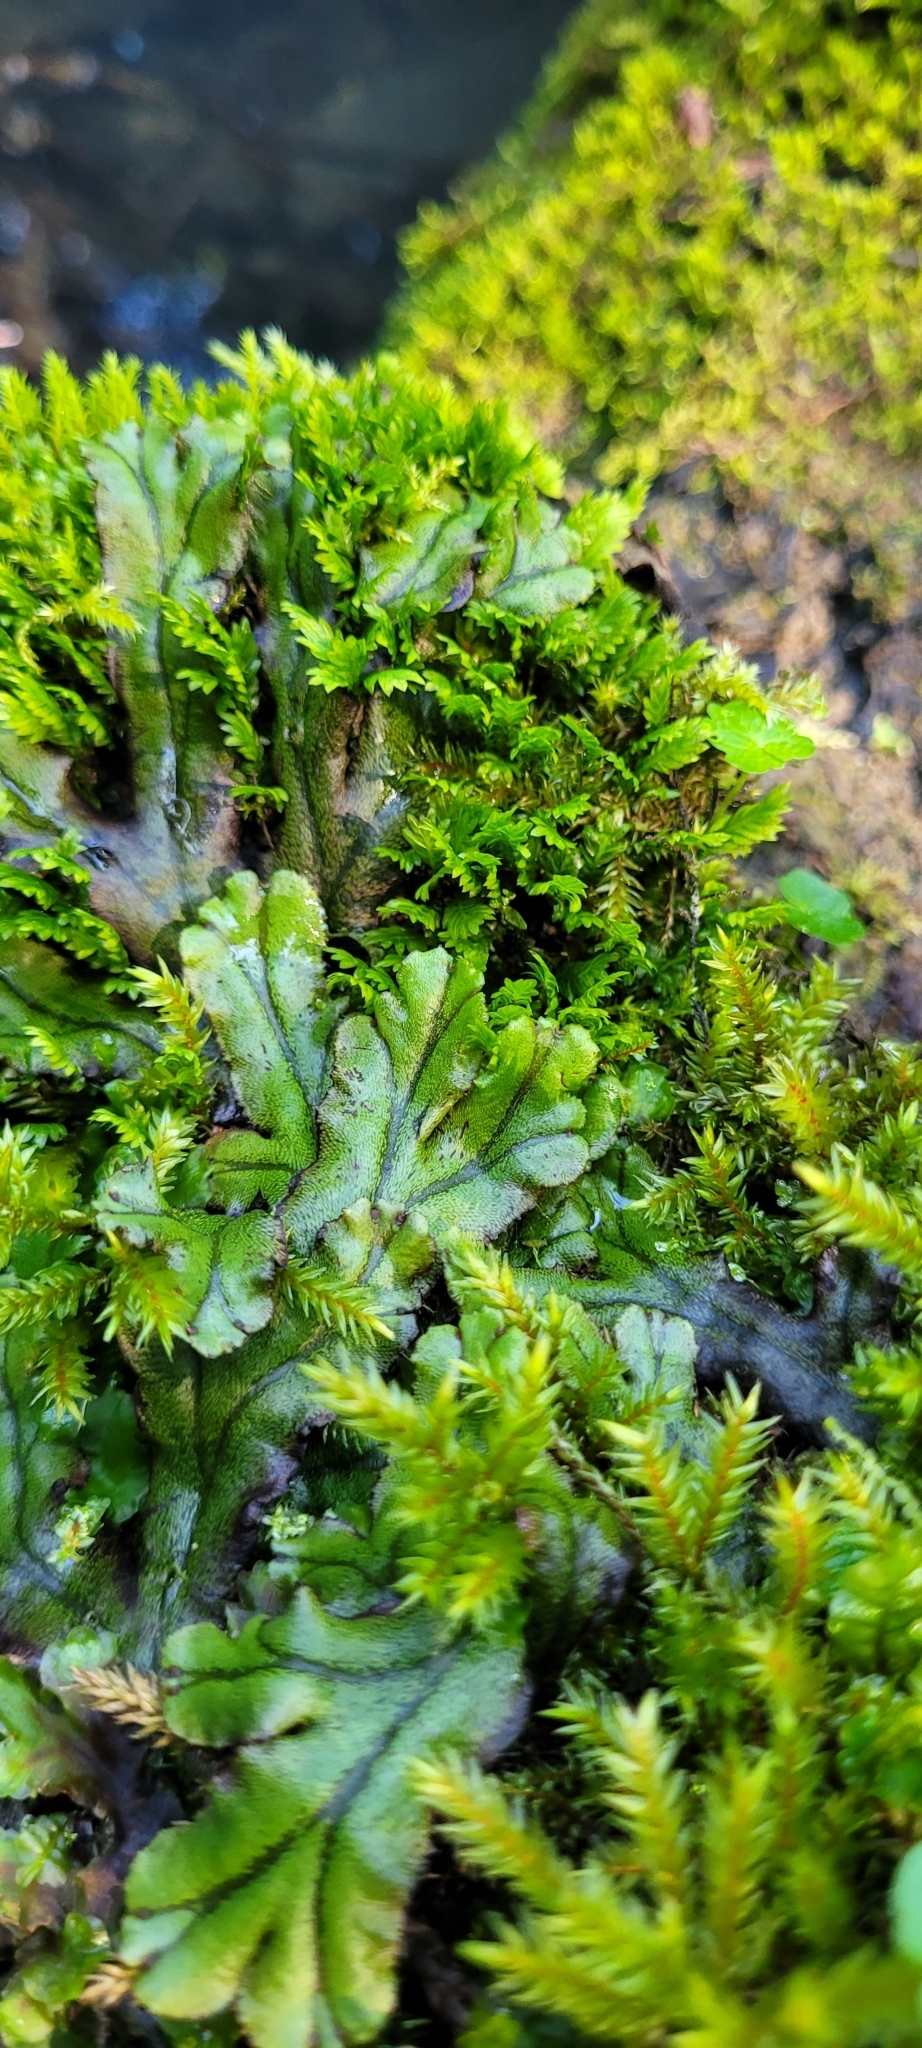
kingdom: Plantae
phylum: Marchantiophyta
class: Marchantiopsida
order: Marchantiales
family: Marchantiaceae
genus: Marchantia
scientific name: Marchantia polymorpha
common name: Common liverwort
